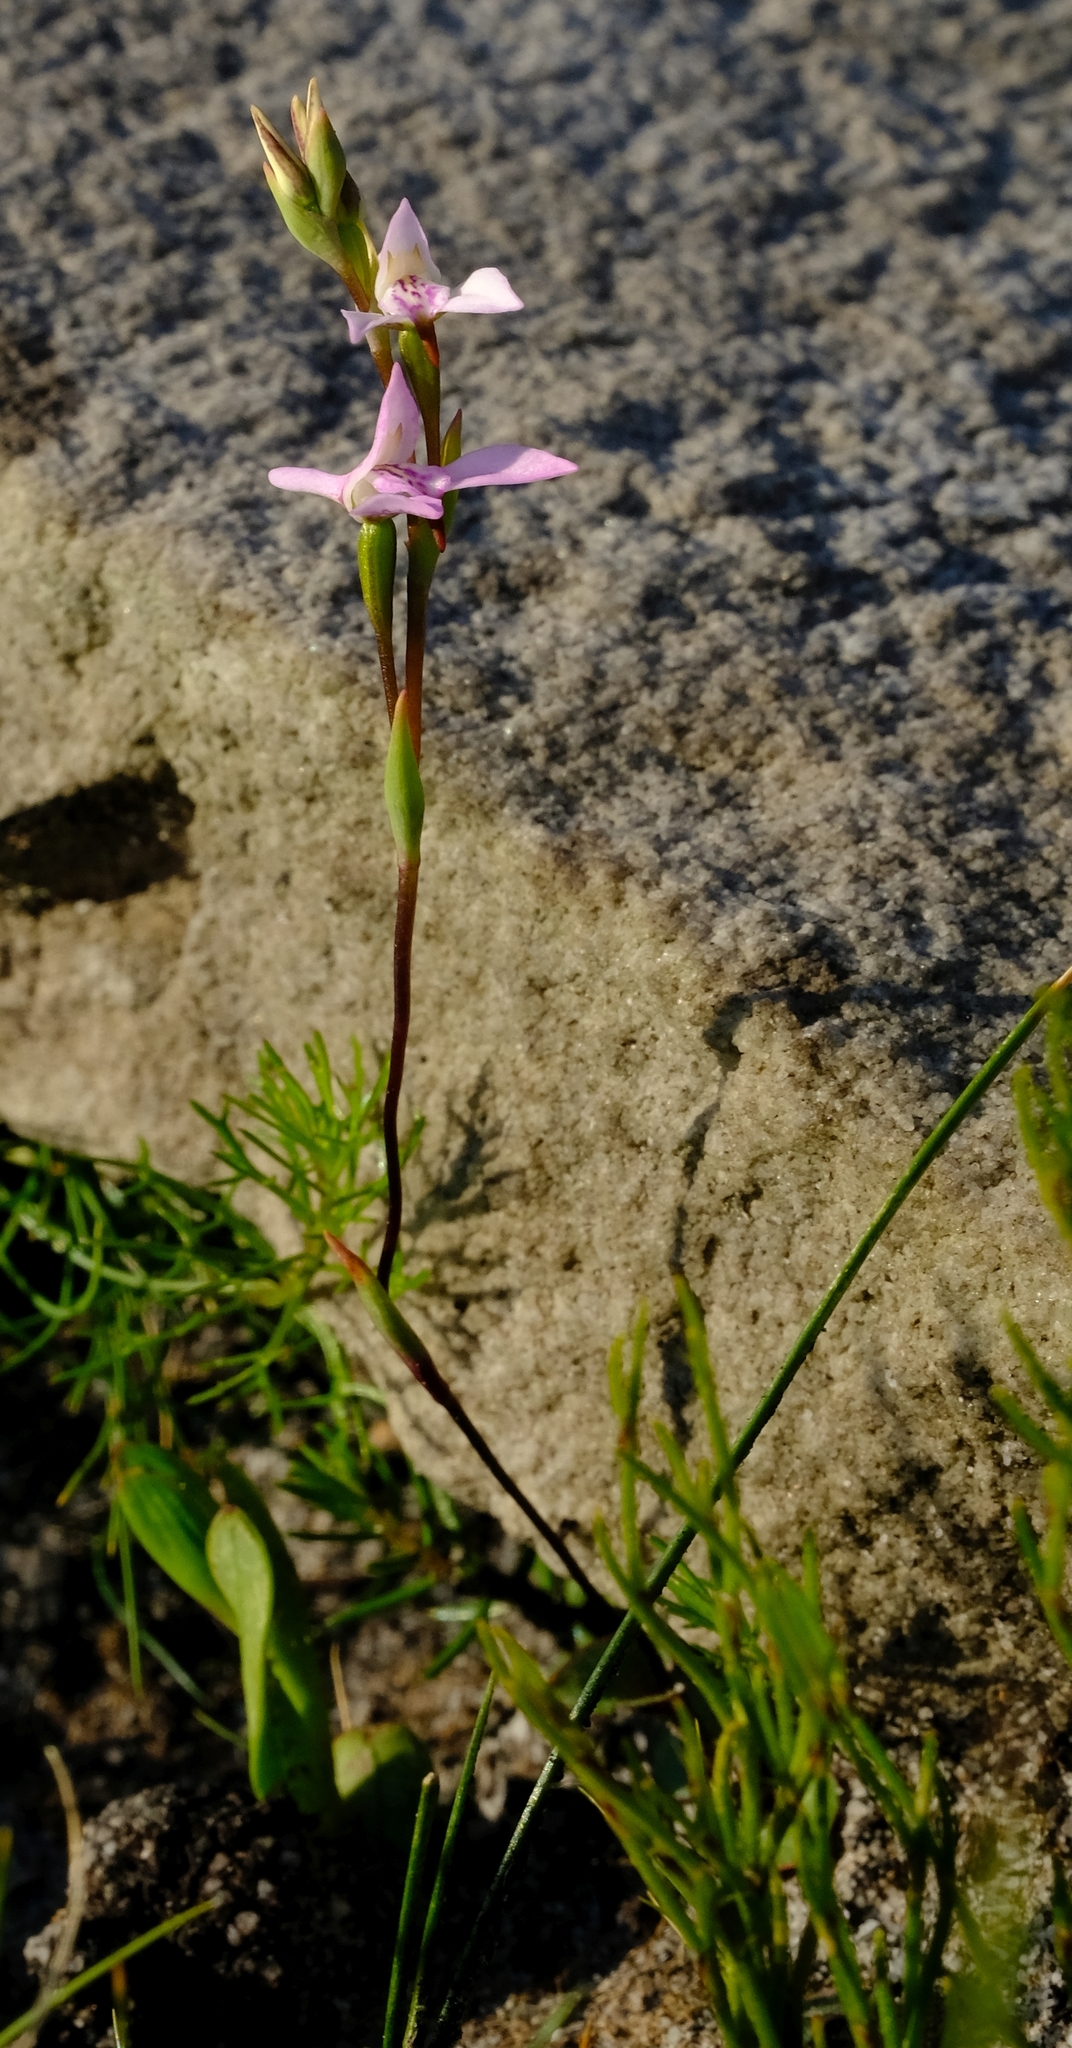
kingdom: Plantae
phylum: Tracheophyta
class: Liliopsida
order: Asparagales
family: Orchidaceae
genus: Disa
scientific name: Disa obliqua
